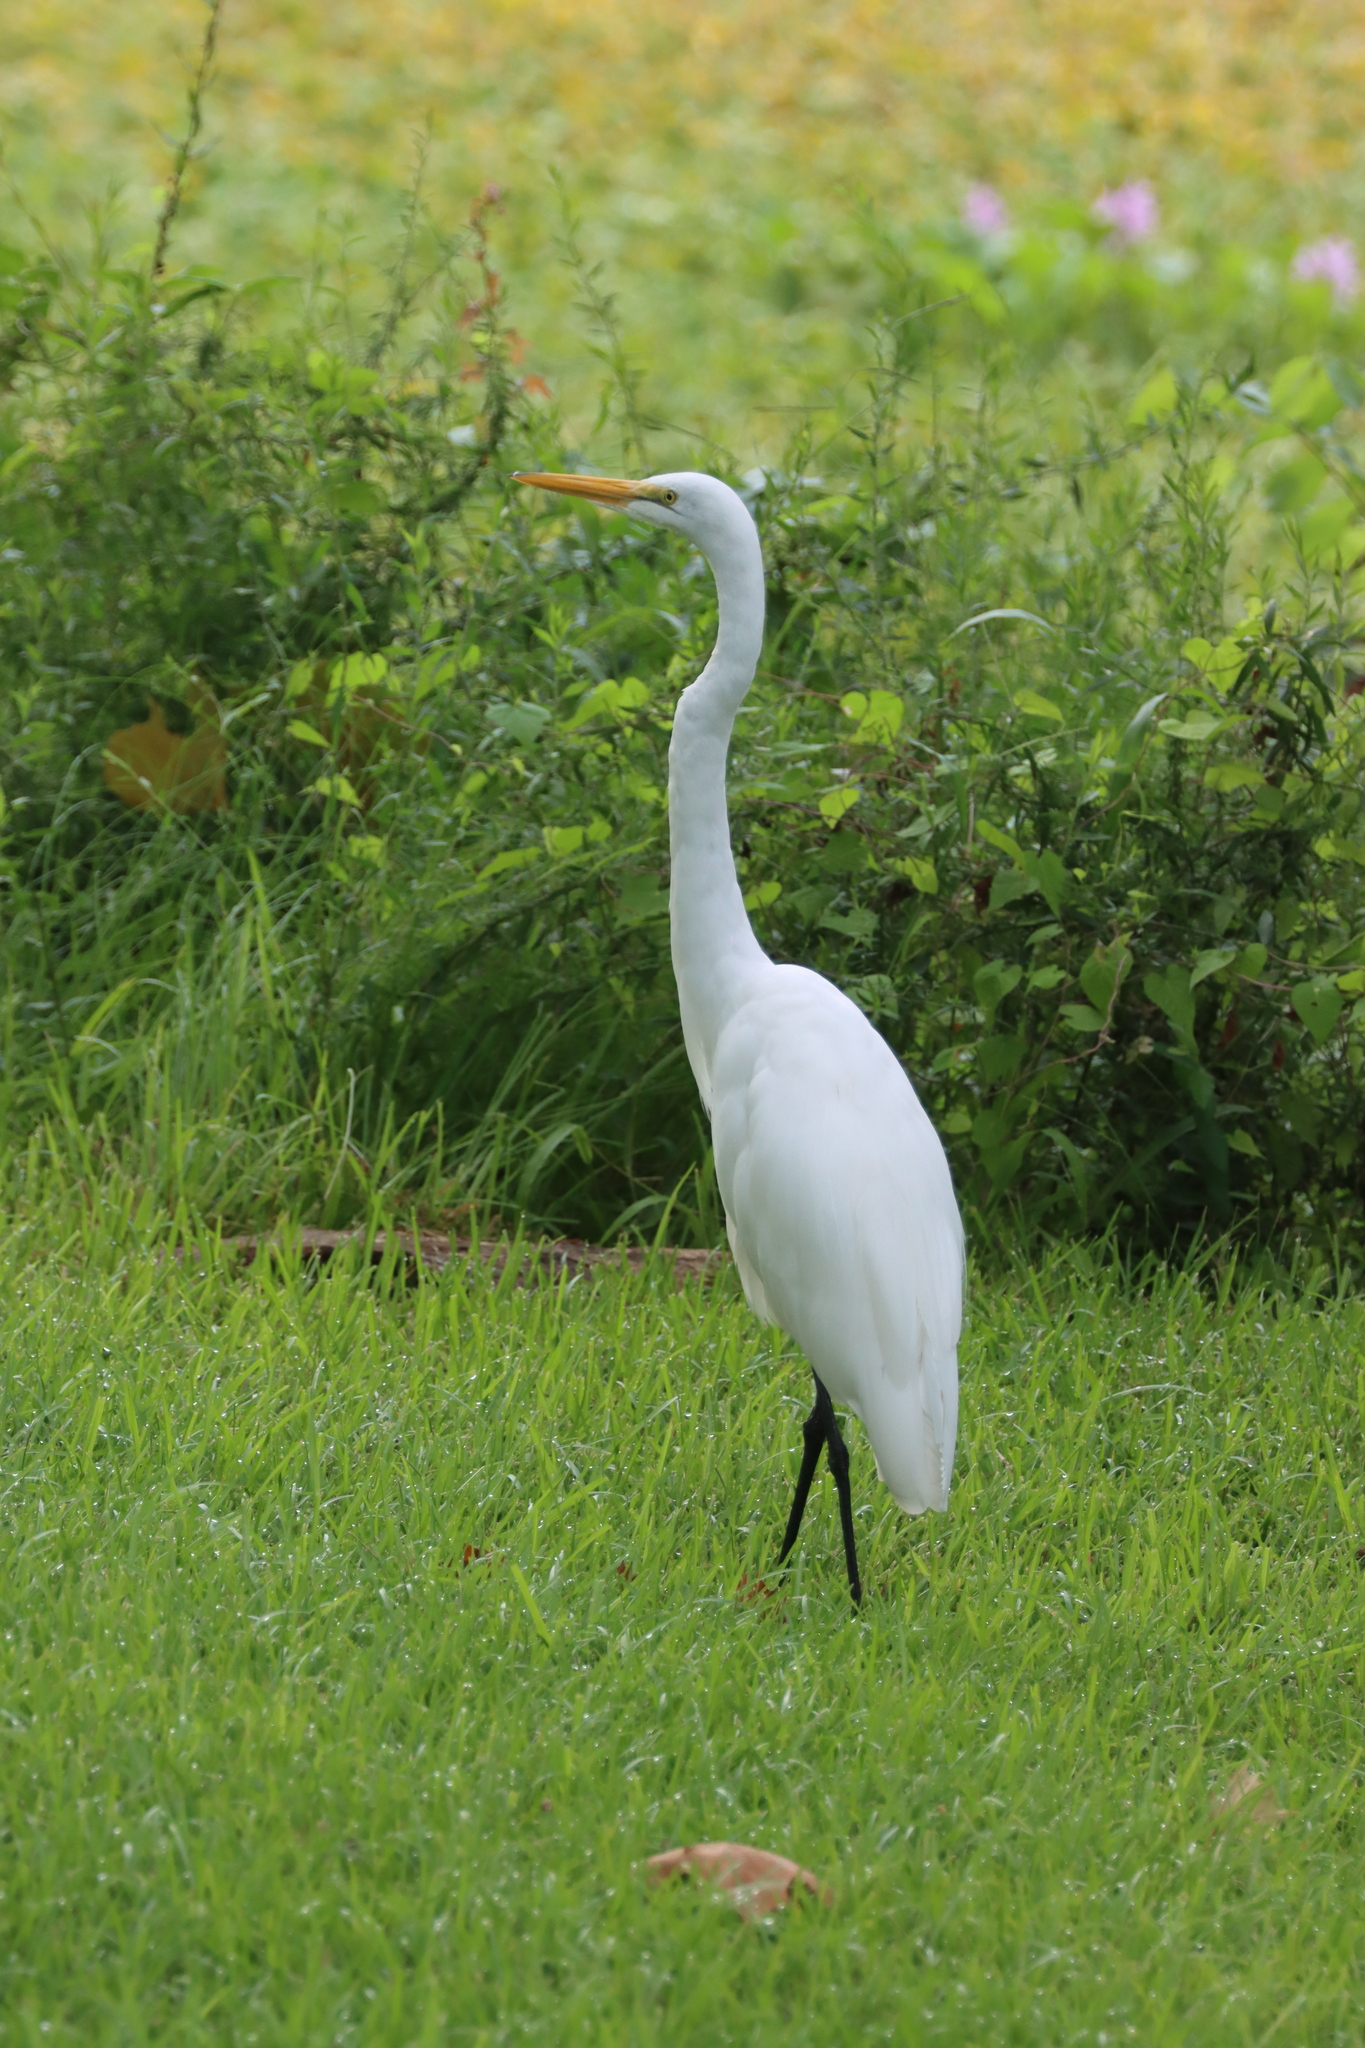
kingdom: Animalia
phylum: Chordata
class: Aves
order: Pelecaniformes
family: Ardeidae
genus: Ardea
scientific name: Ardea alba
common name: Great egret
